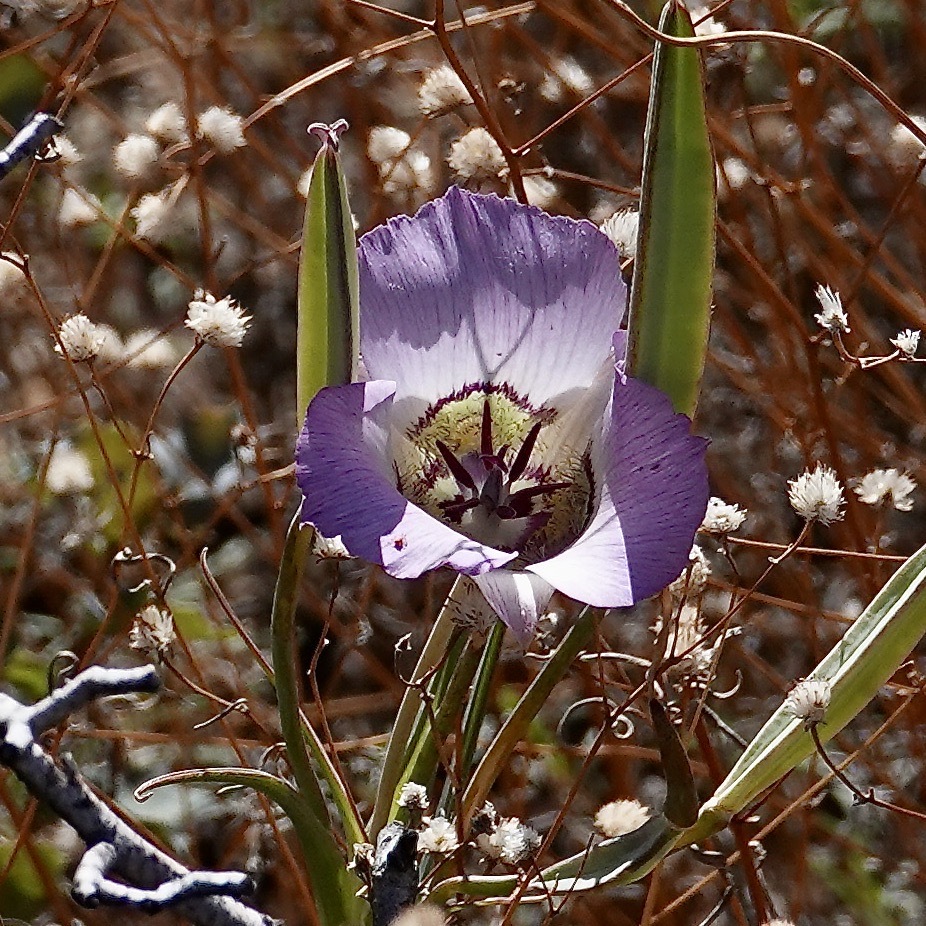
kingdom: Plantae
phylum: Tracheophyta
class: Liliopsida
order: Liliales
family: Liliaceae
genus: Calochortus
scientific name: Calochortus ambiguus
